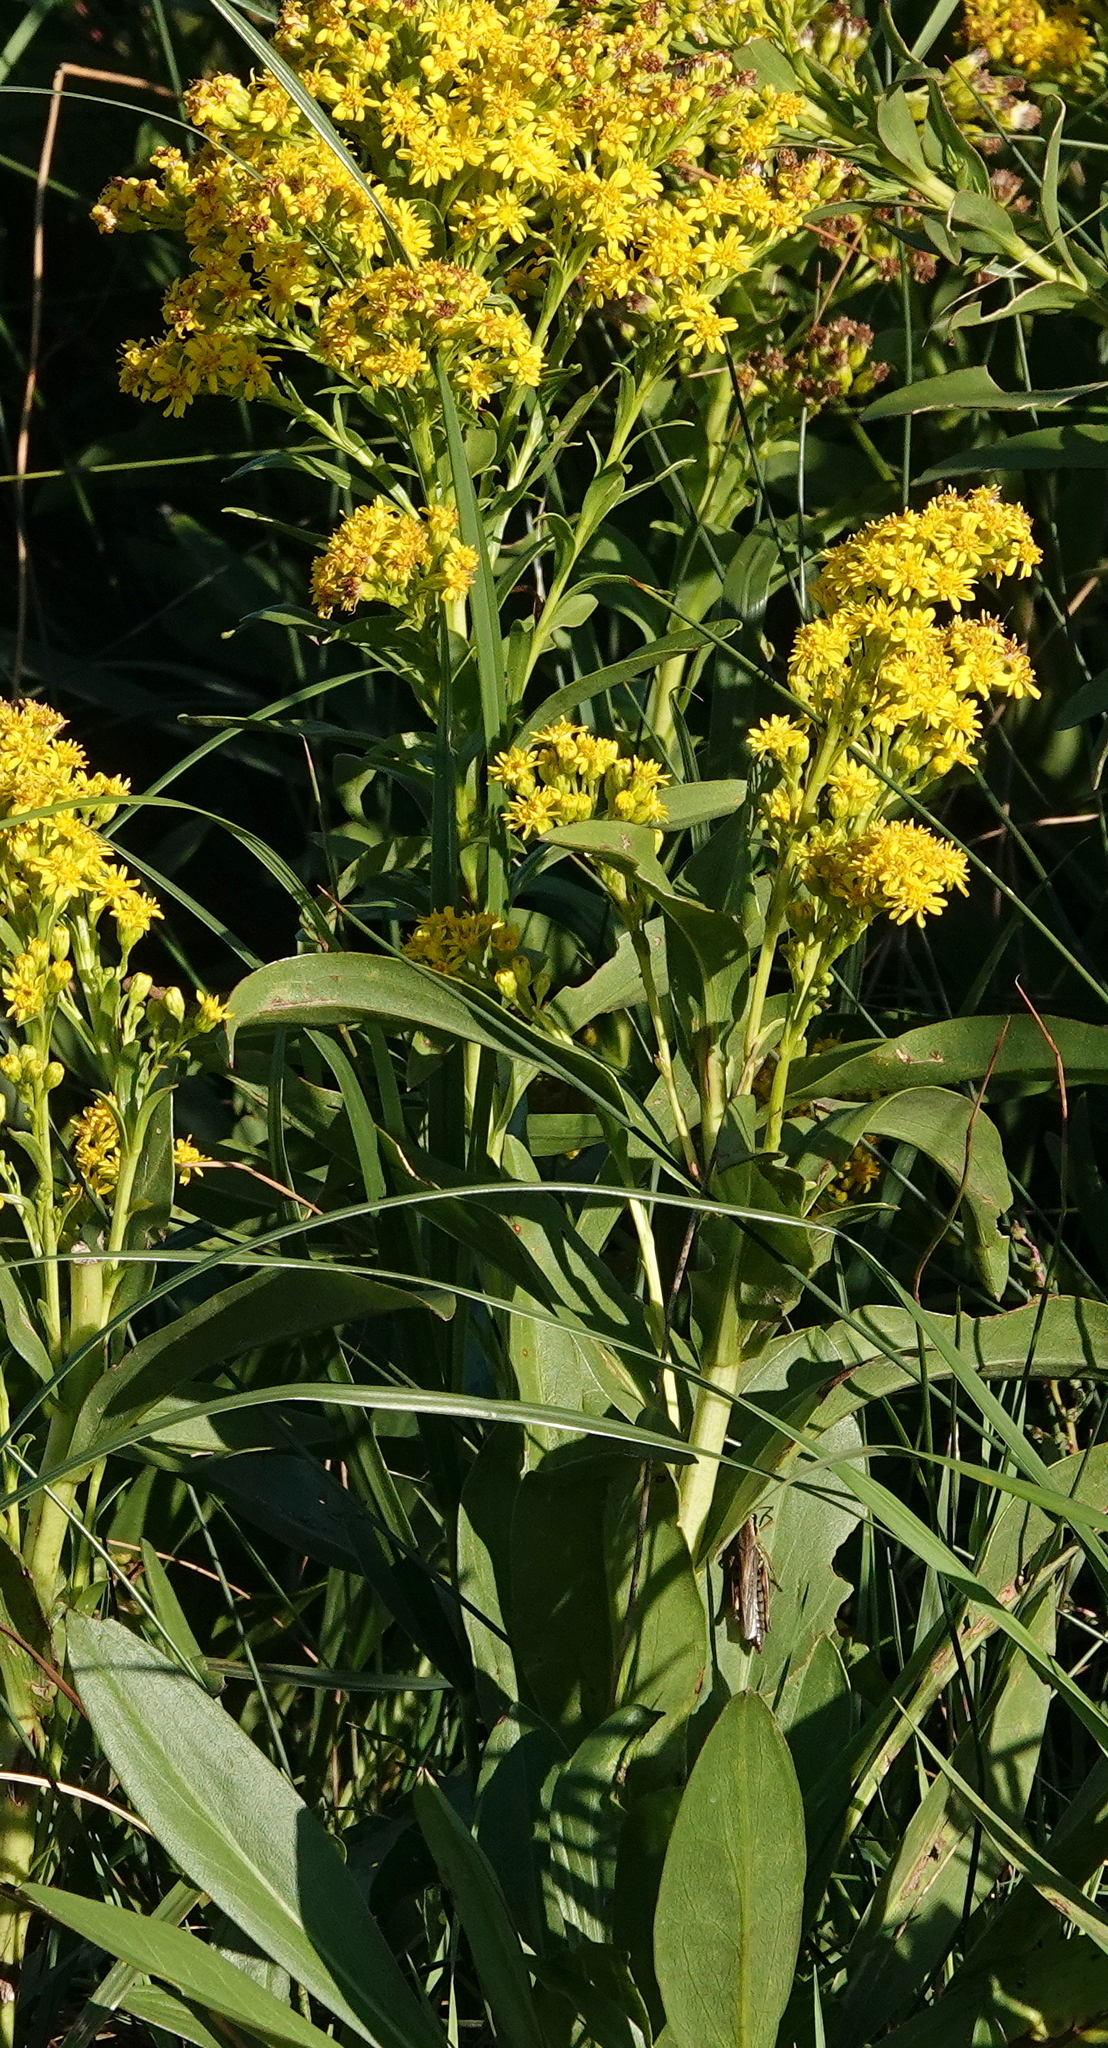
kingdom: Plantae
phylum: Tracheophyta
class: Magnoliopsida
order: Asterales
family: Asteraceae
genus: Solidago
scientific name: Solidago sempervirens
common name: Salt-marsh goldenrod
